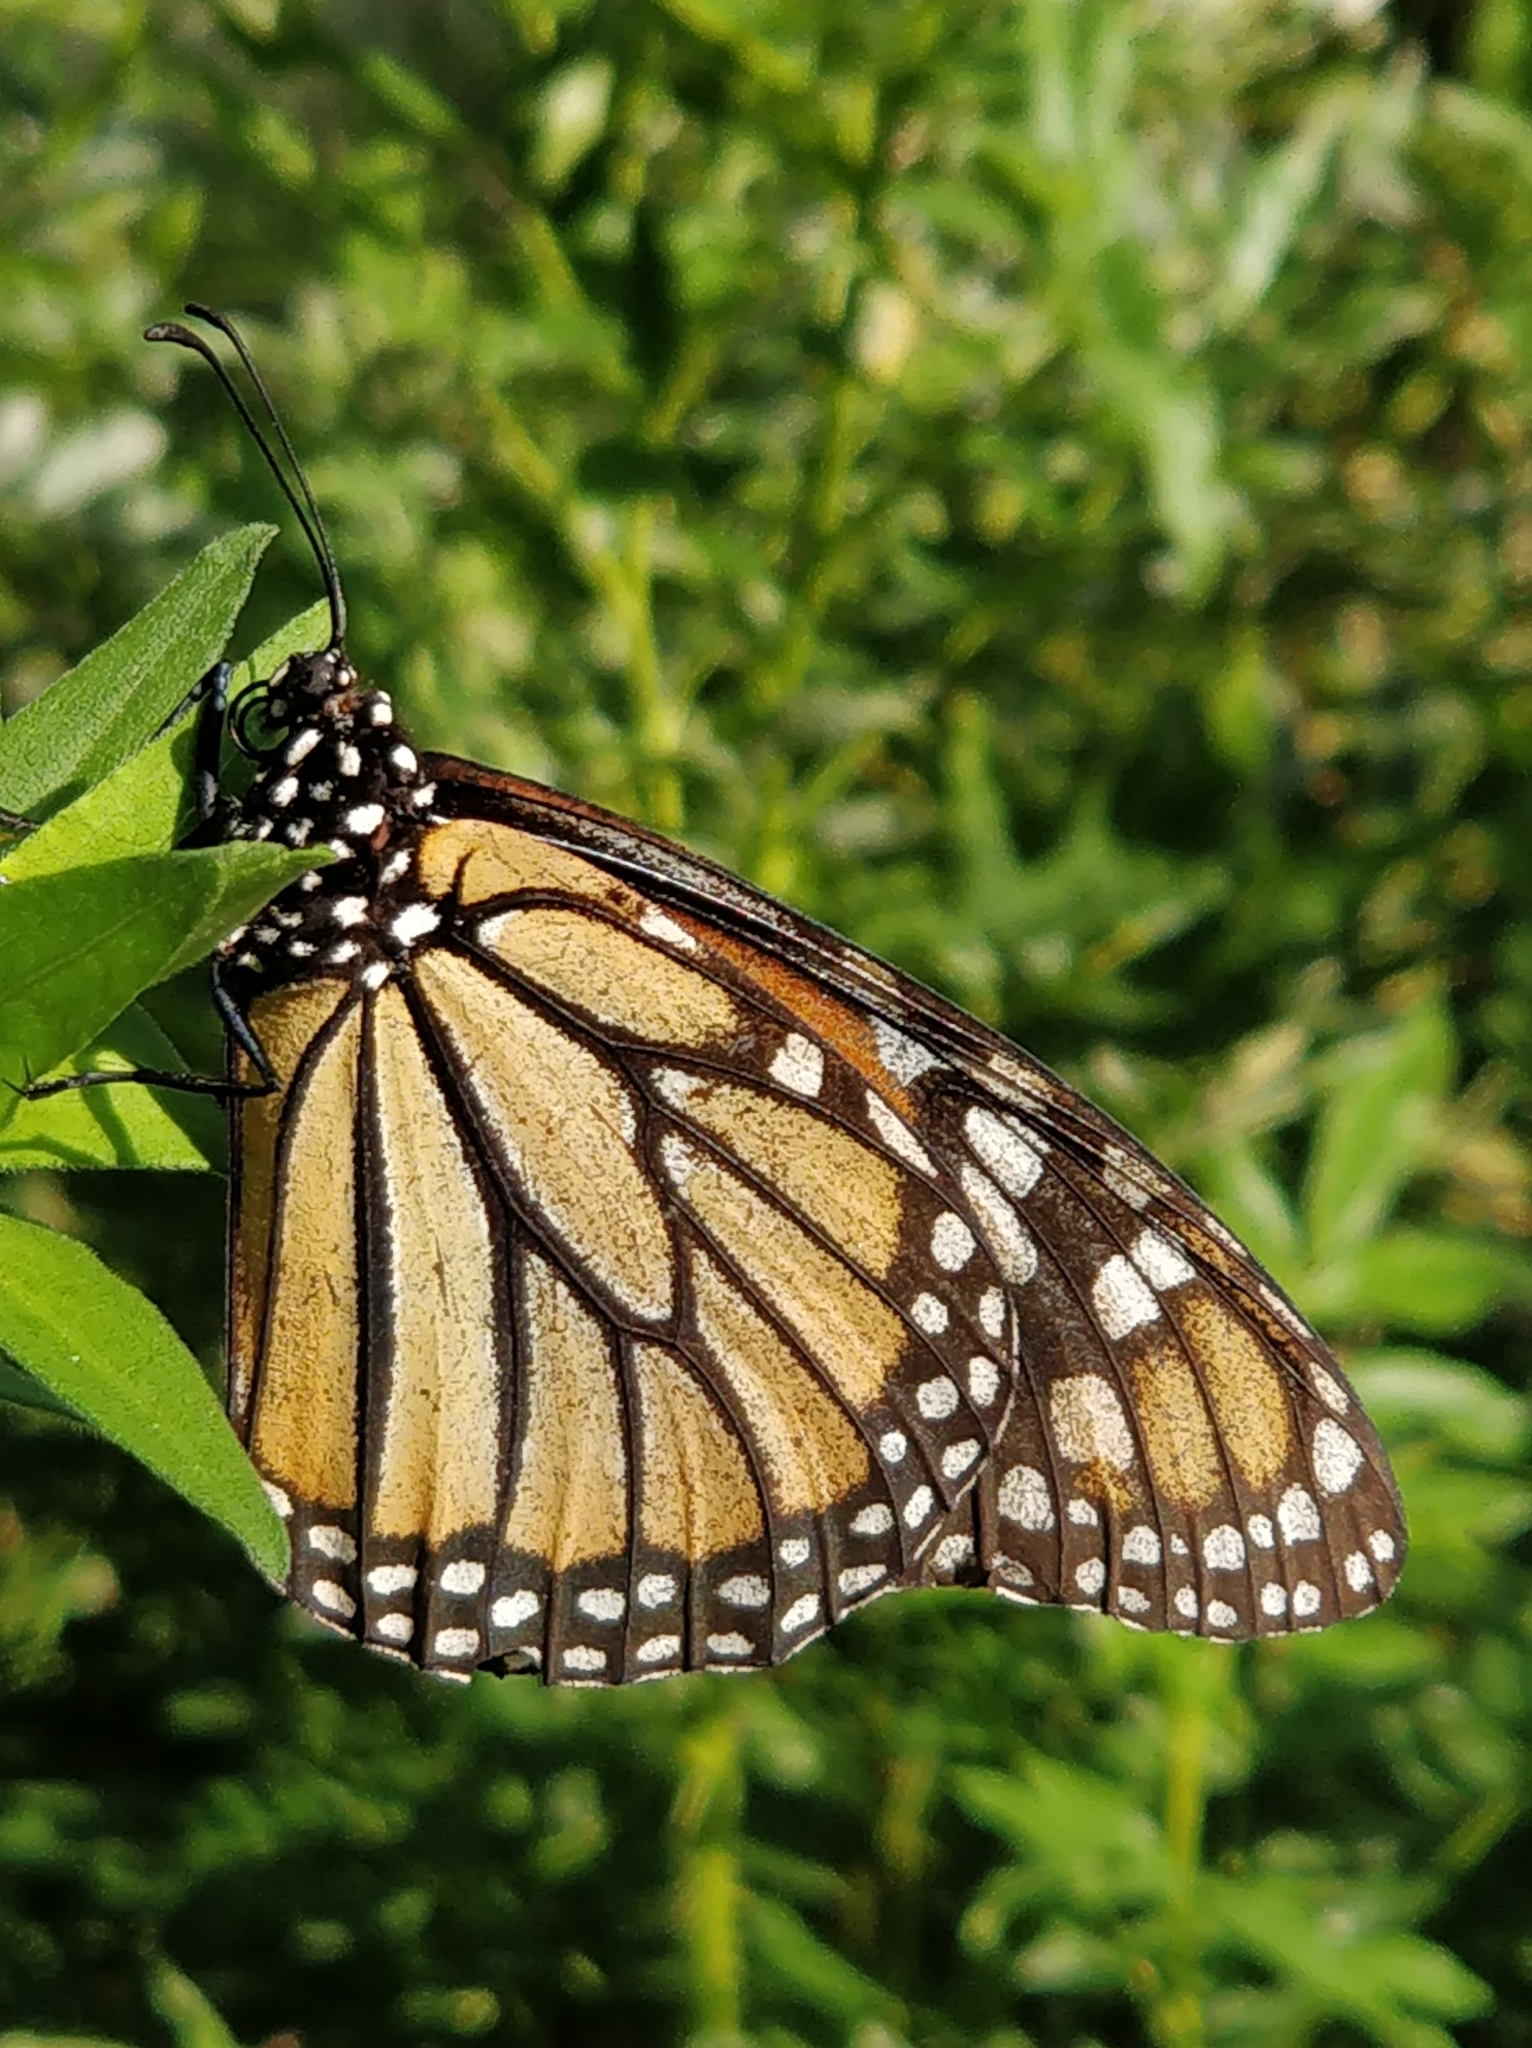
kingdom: Animalia
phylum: Arthropoda
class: Insecta
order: Lepidoptera
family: Nymphalidae
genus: Danaus
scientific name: Danaus plexippus
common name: Monarch
